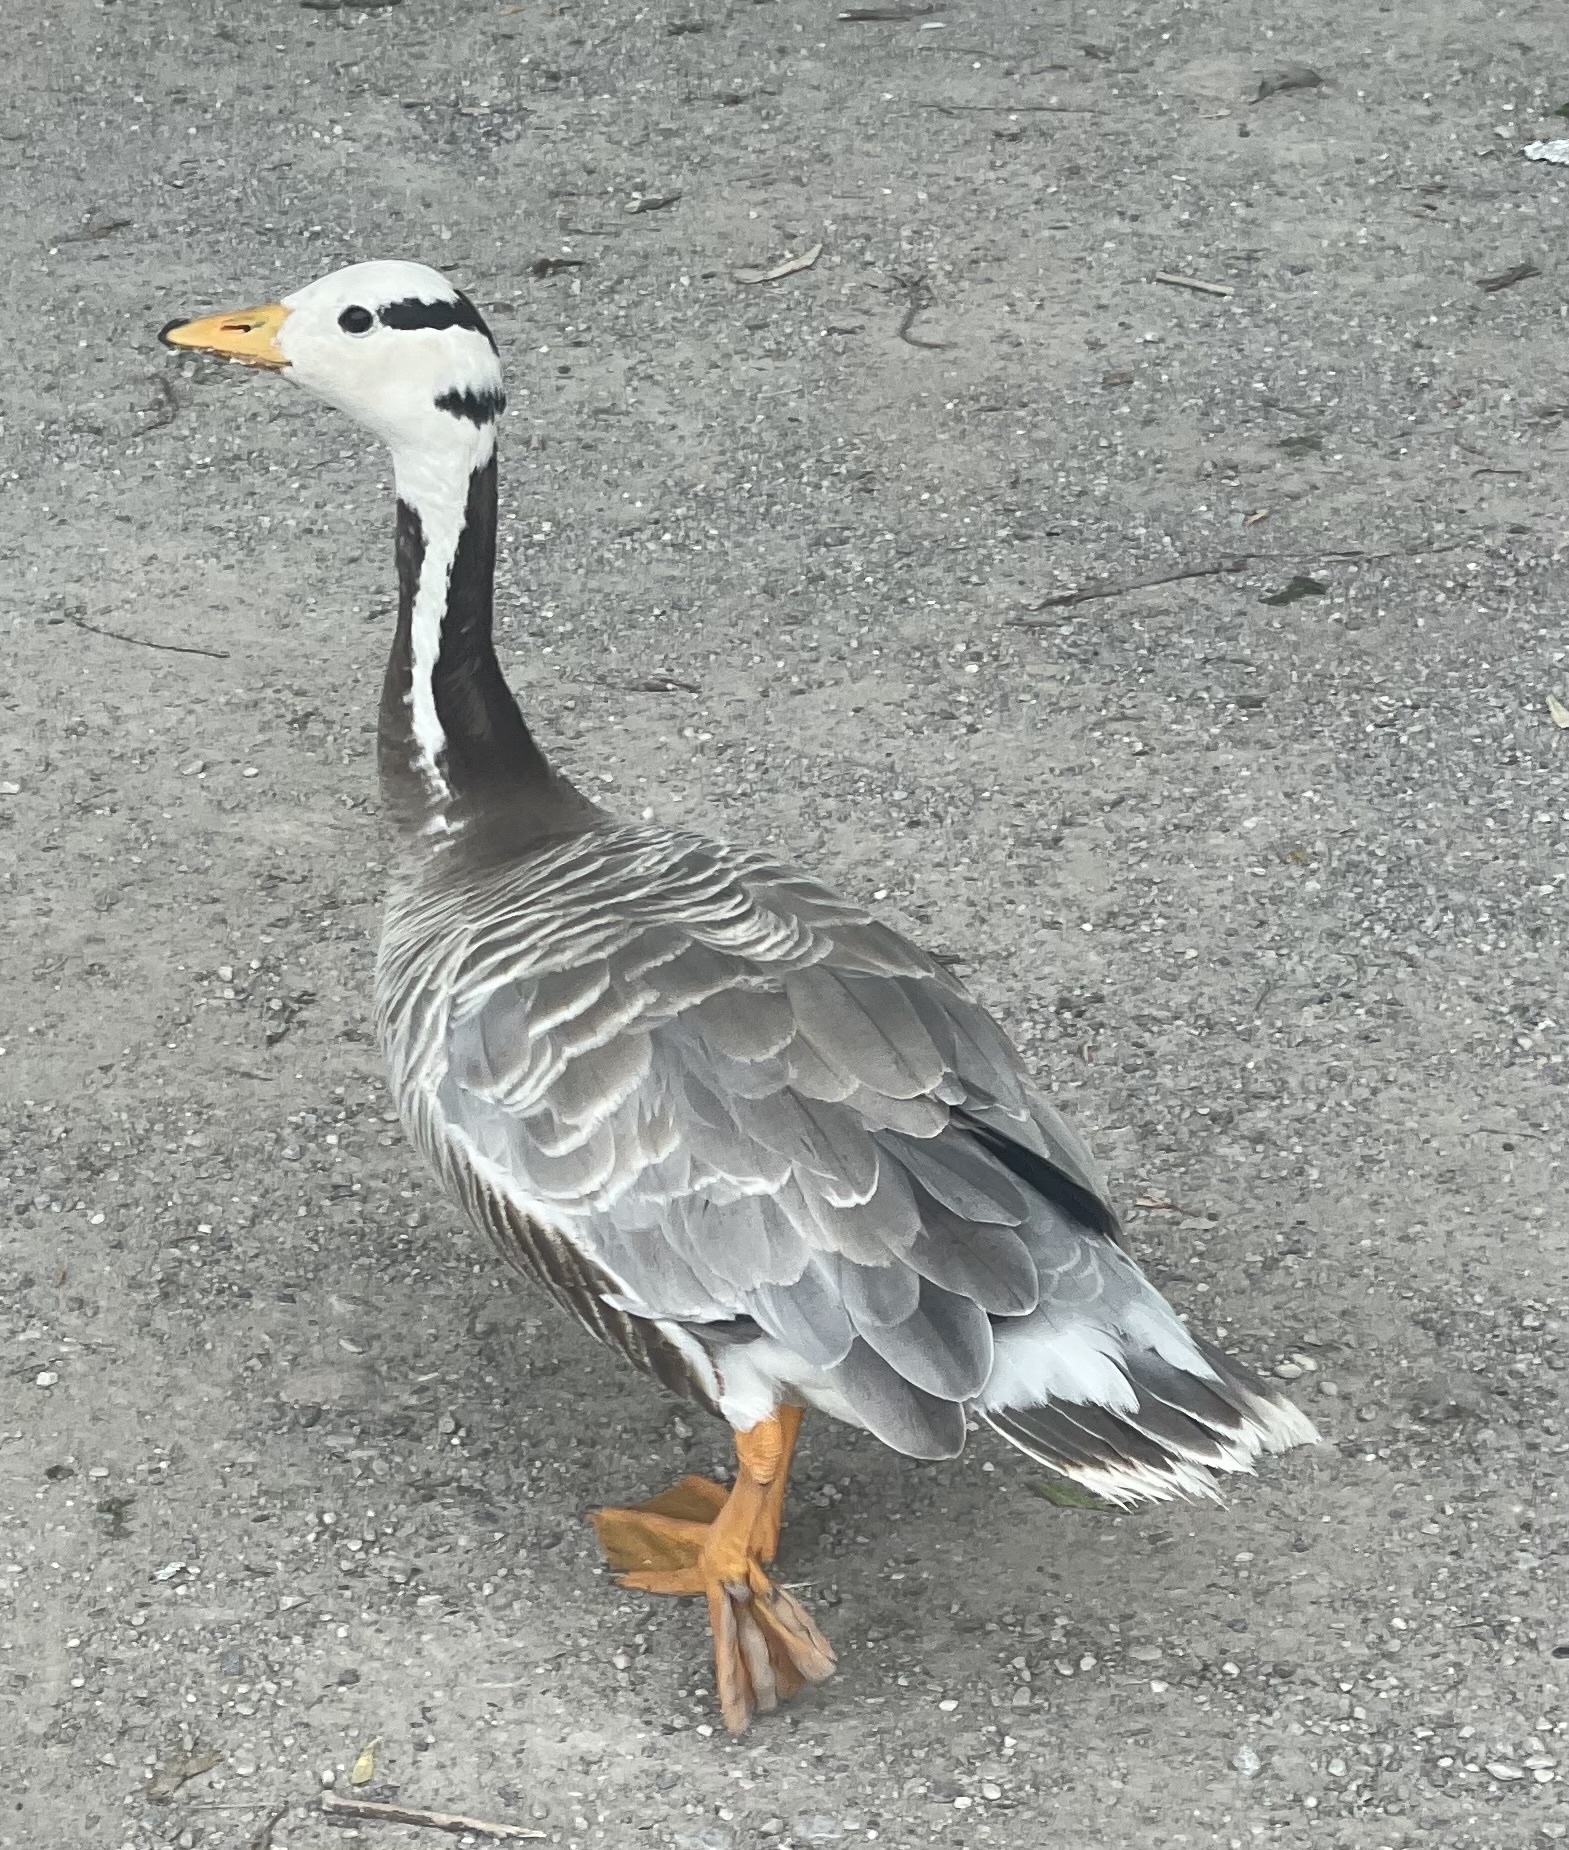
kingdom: Animalia
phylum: Chordata
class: Aves
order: Anseriformes
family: Anatidae
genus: Anser
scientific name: Anser indicus
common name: Bar-headed goose
